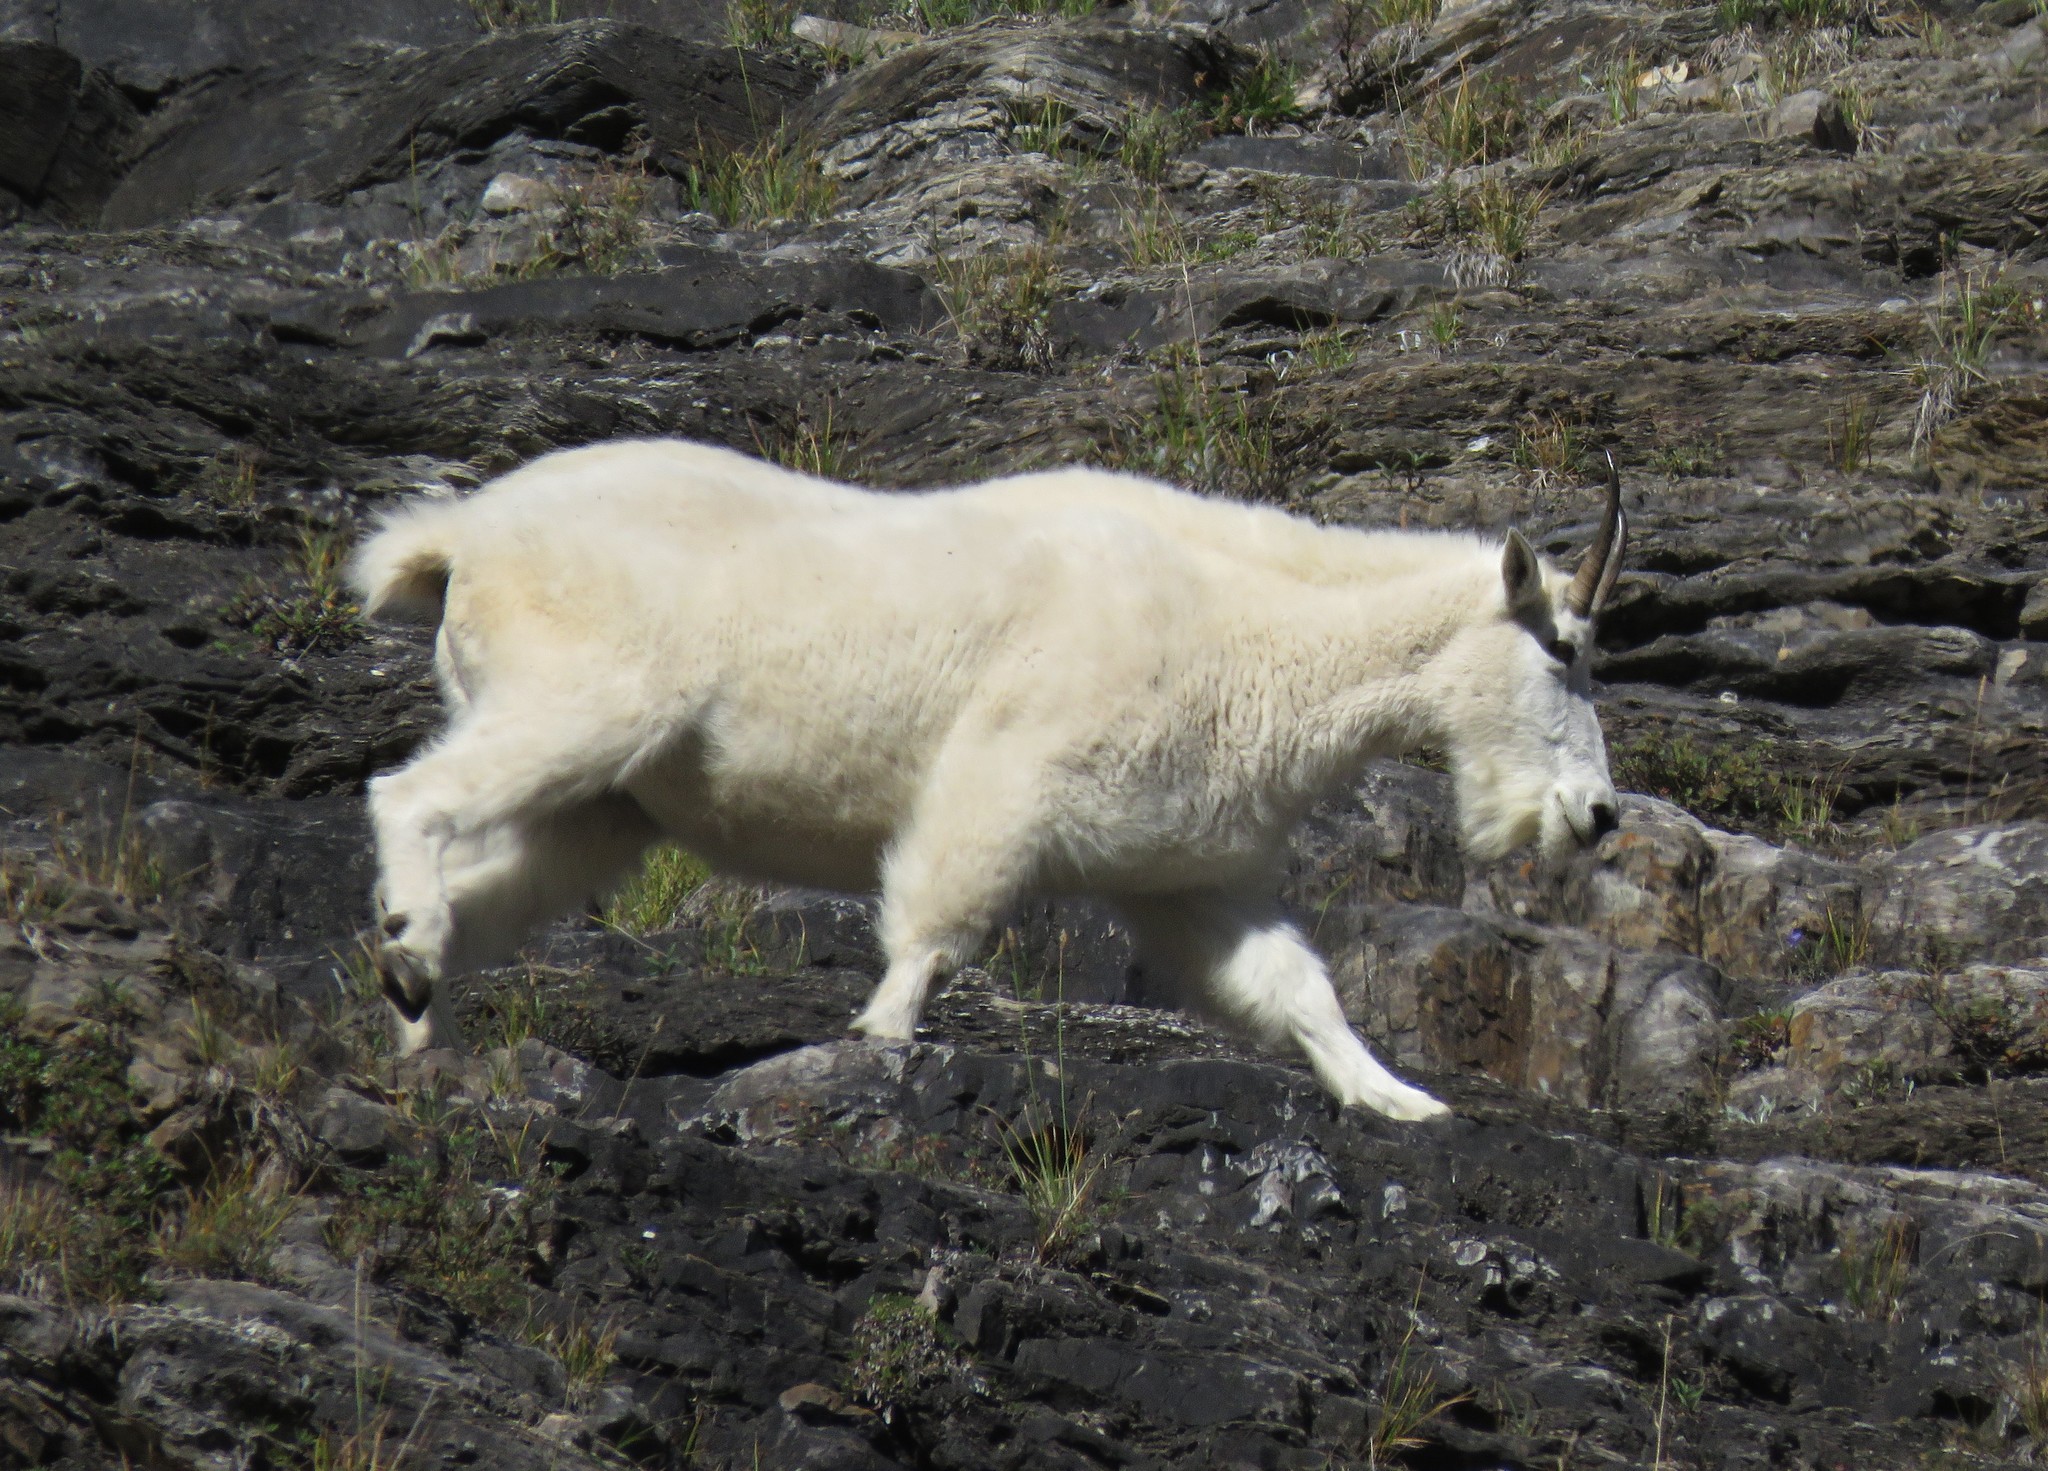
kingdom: Animalia
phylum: Chordata
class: Mammalia
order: Artiodactyla
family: Bovidae
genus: Oreamnos
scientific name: Oreamnos americanus
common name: Mountain goat
